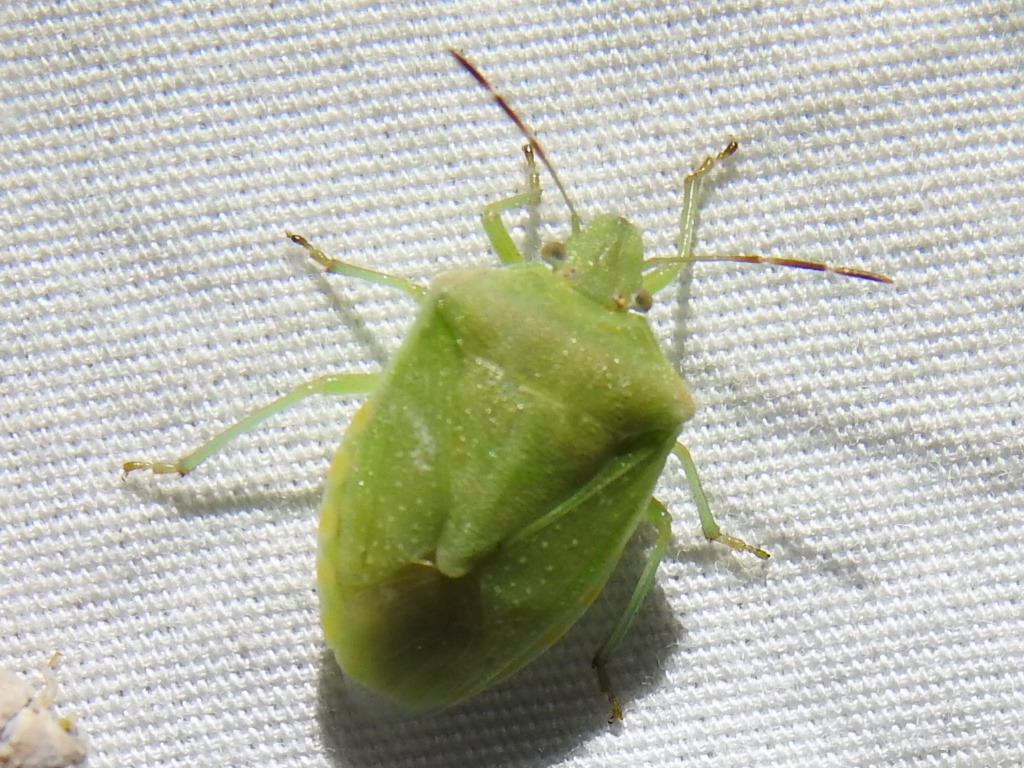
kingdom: Animalia
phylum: Arthropoda
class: Insecta
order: Hemiptera
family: Pentatomidae
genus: Thyanta
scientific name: Thyanta accerra
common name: Stink bug
